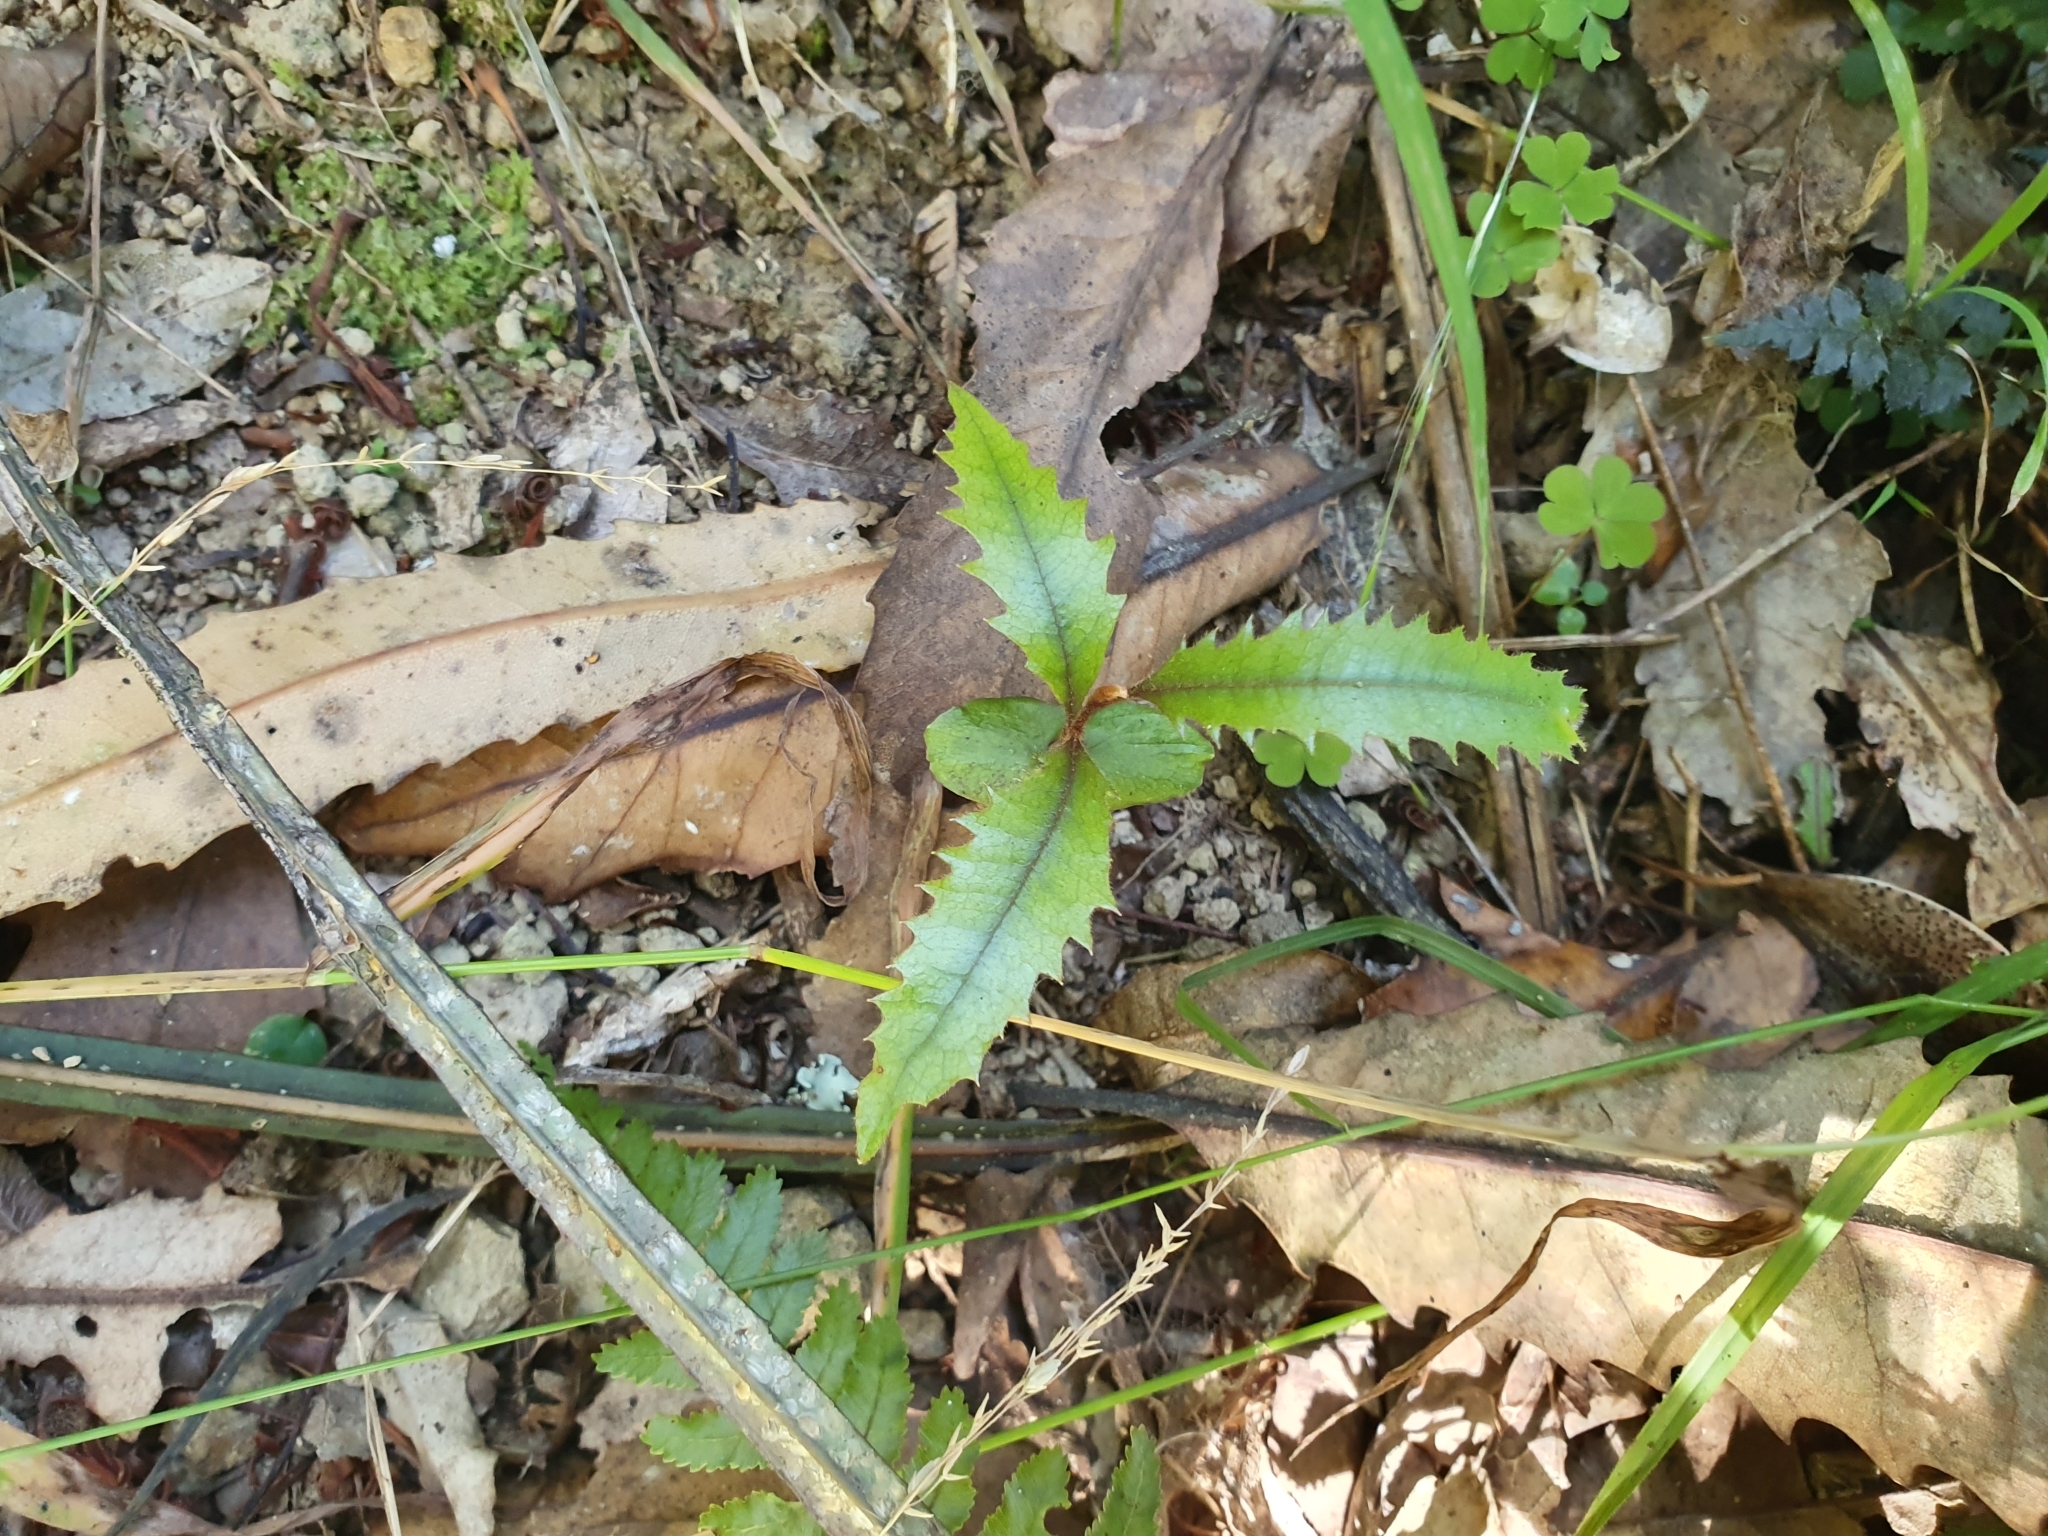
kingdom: Plantae
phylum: Tracheophyta
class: Magnoliopsida
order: Proteales
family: Proteaceae
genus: Knightia
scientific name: Knightia excelsa
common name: New zealand-honeysuckle
